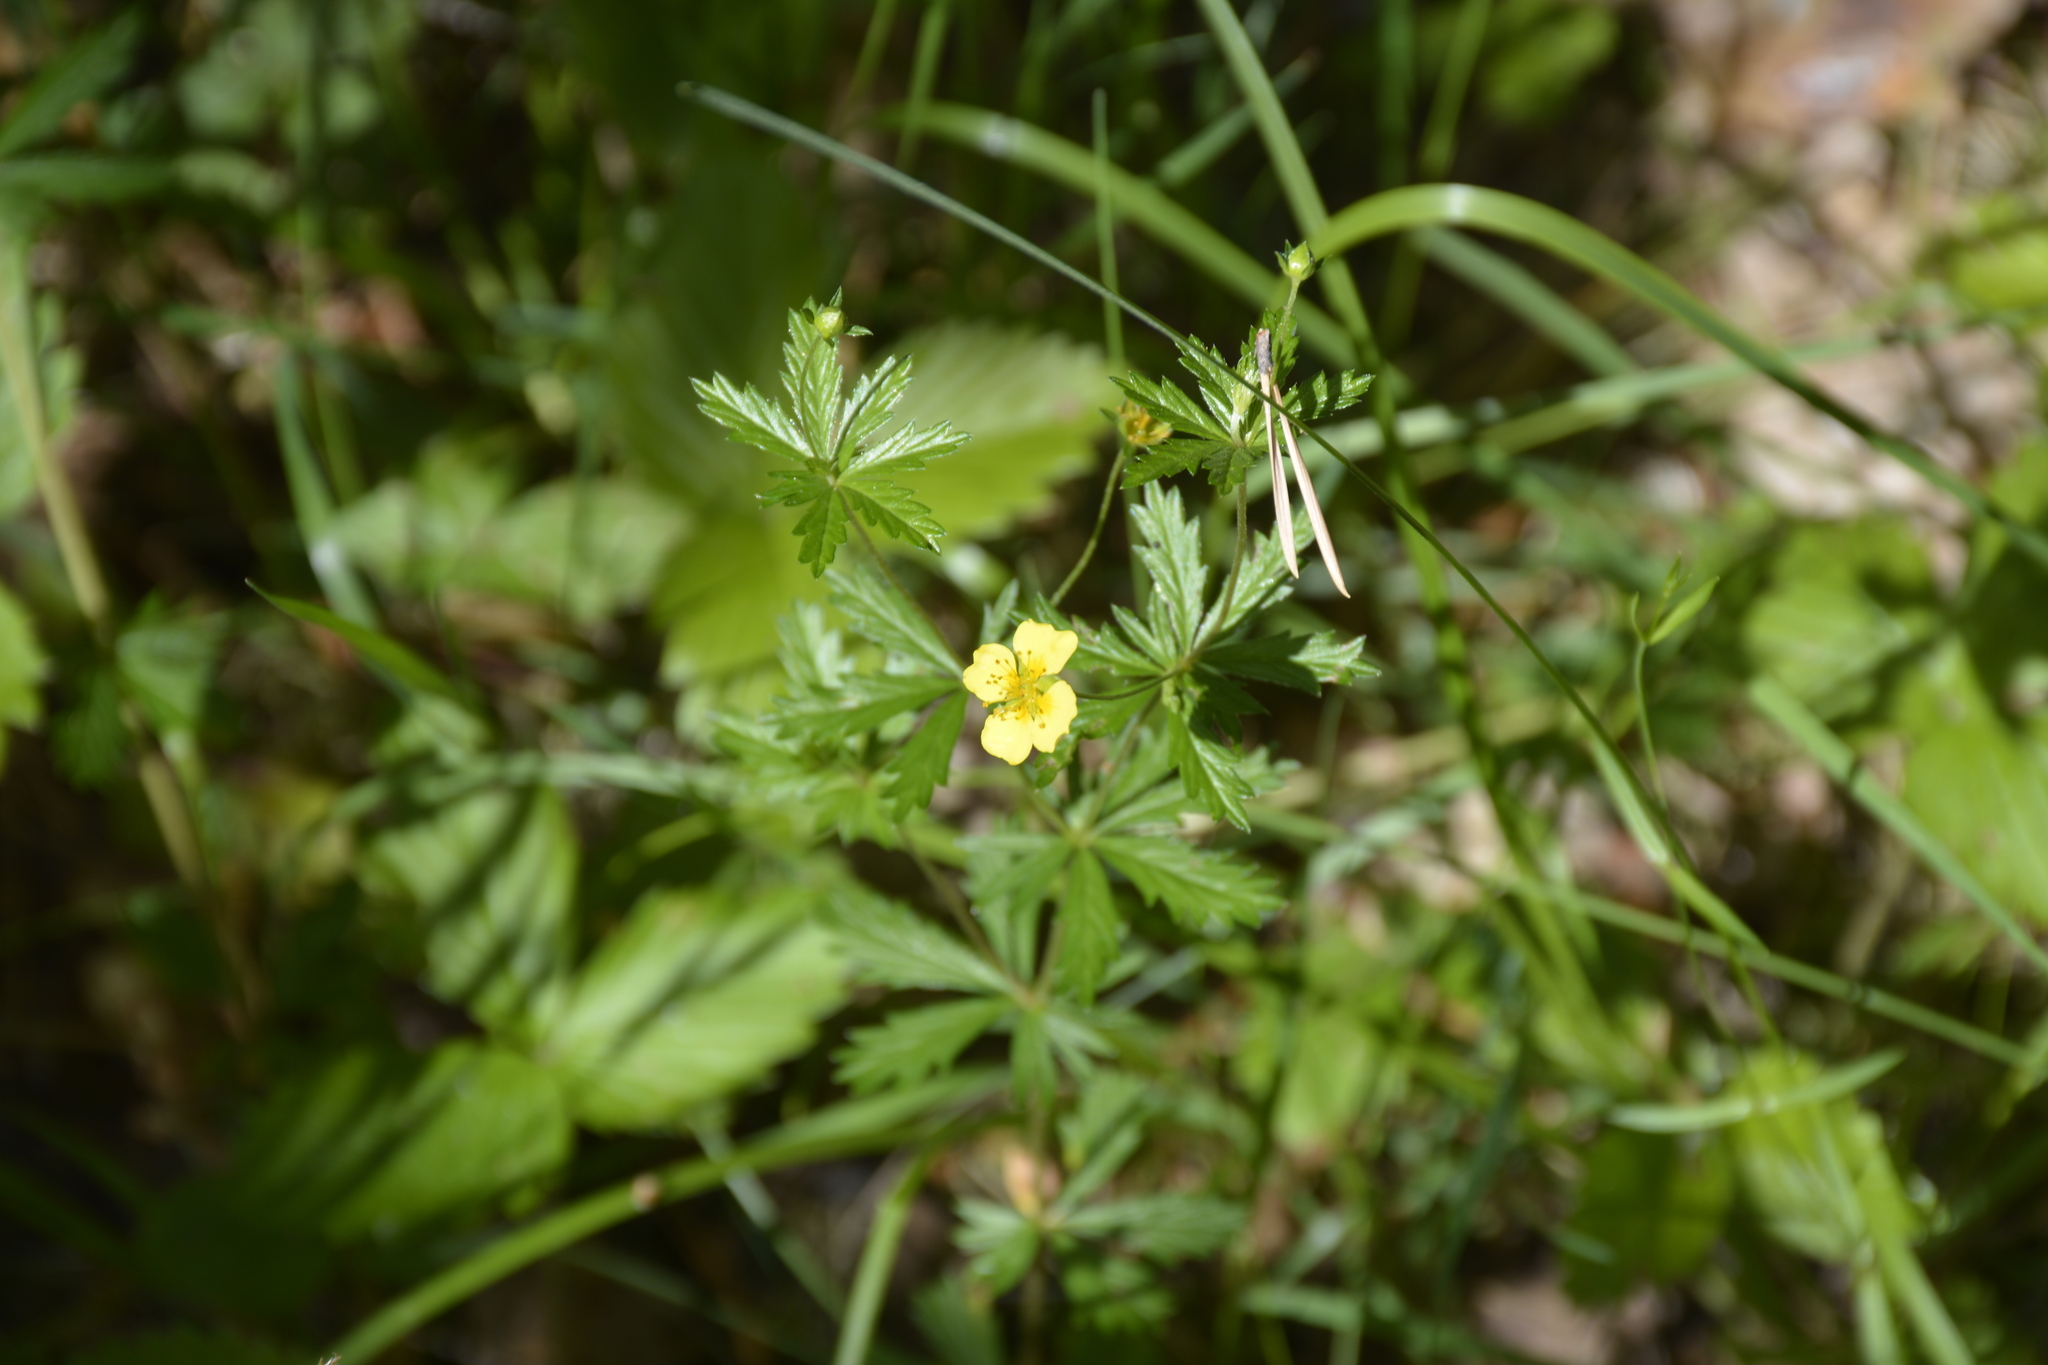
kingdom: Plantae
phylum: Tracheophyta
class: Magnoliopsida
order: Rosales
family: Rosaceae
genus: Potentilla
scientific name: Potentilla erecta
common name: Tormentil
